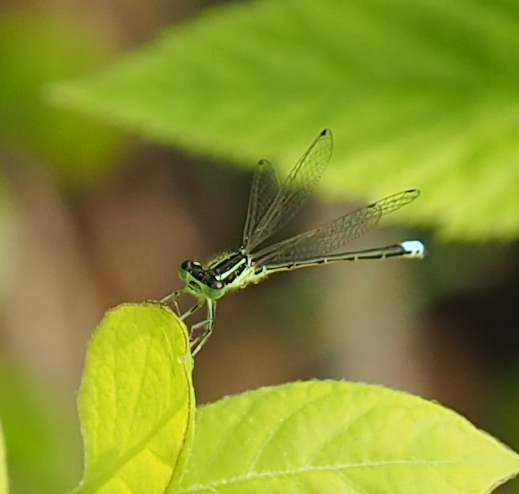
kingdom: Animalia
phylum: Arthropoda
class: Insecta
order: Odonata
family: Coenagrionidae
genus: Ischnura
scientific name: Ischnura verticalis
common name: Eastern forktail
